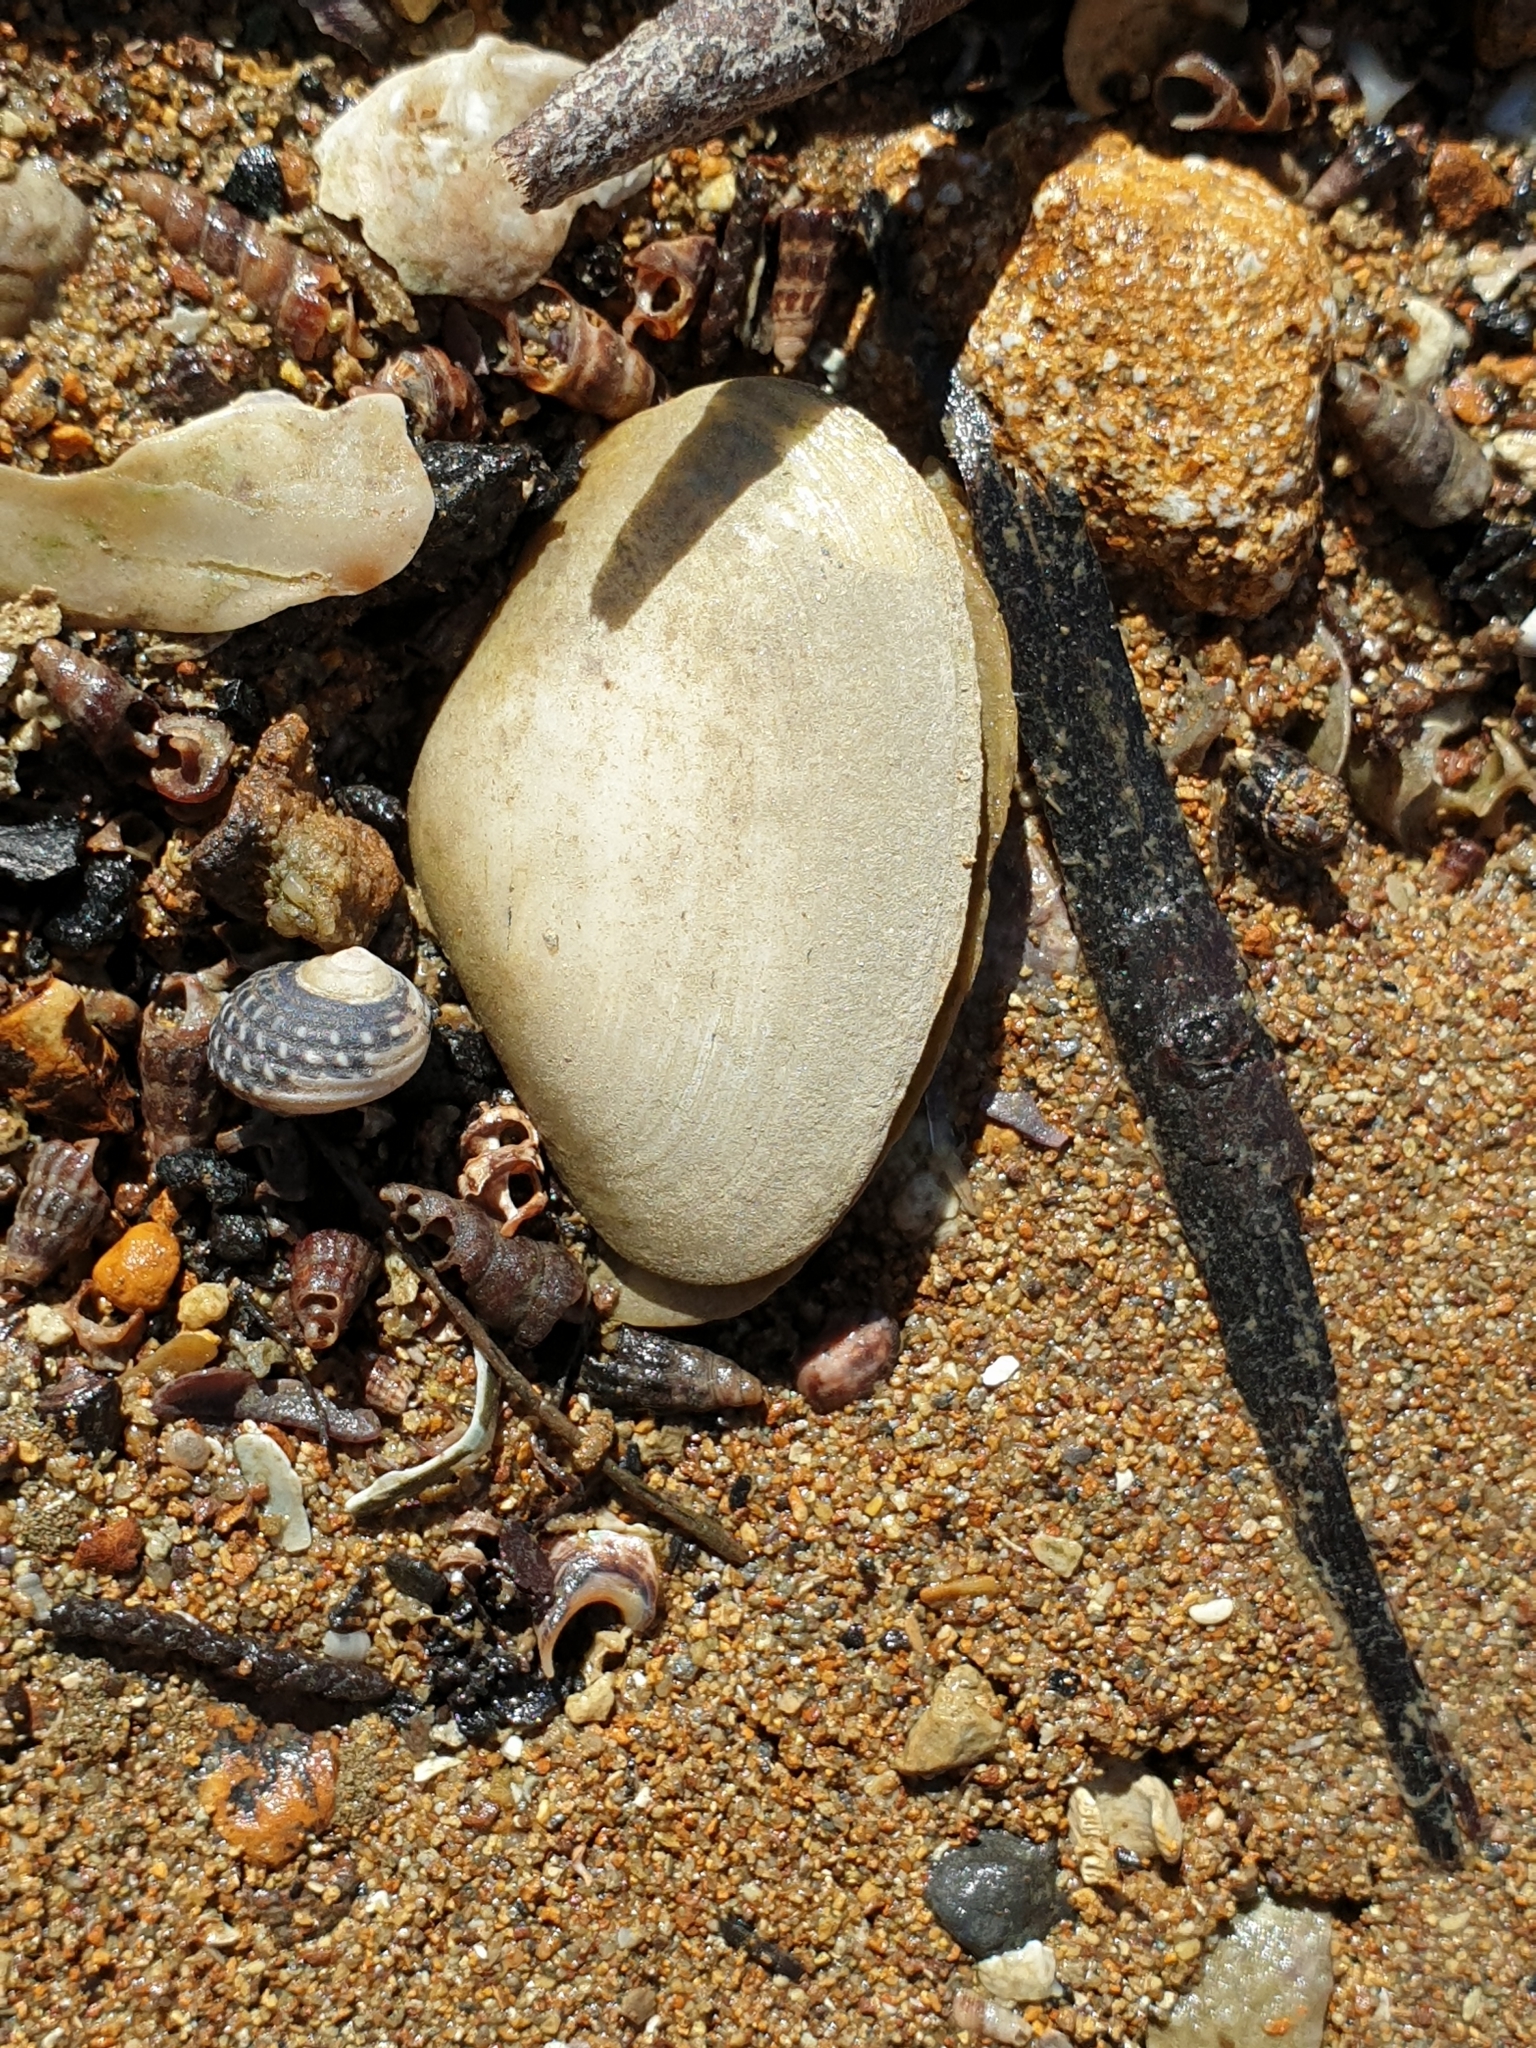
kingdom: Animalia
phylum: Mollusca
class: Bivalvia
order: Venerida
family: Mesodesmatidae
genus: Paphies
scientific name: Paphies australis
